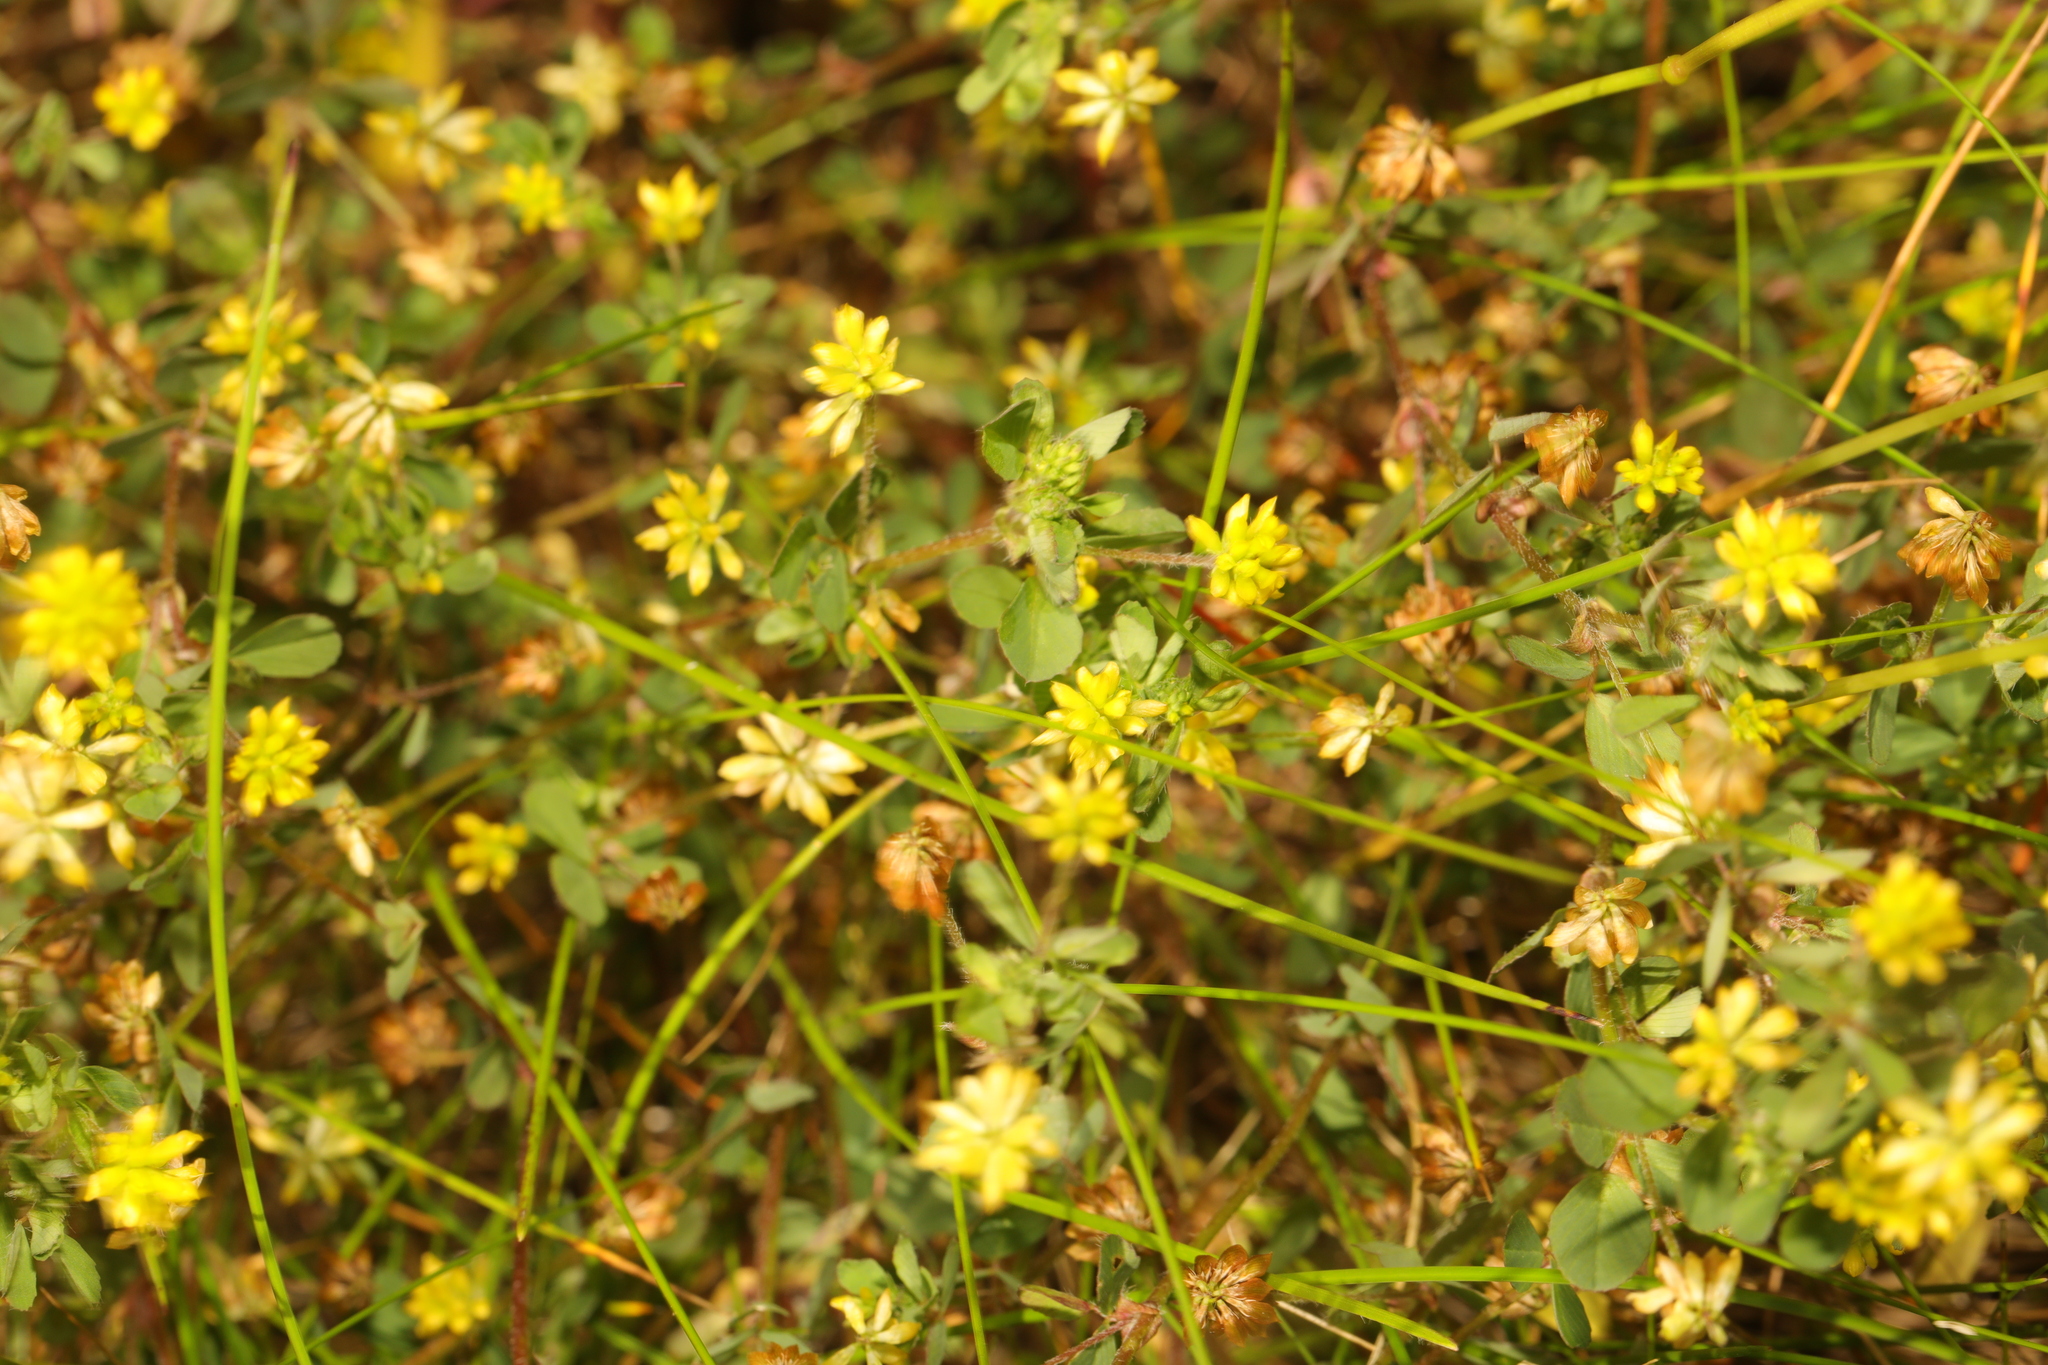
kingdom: Plantae
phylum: Tracheophyta
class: Magnoliopsida
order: Fabales
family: Fabaceae
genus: Trifolium
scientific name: Trifolium dubium
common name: Suckling clover
